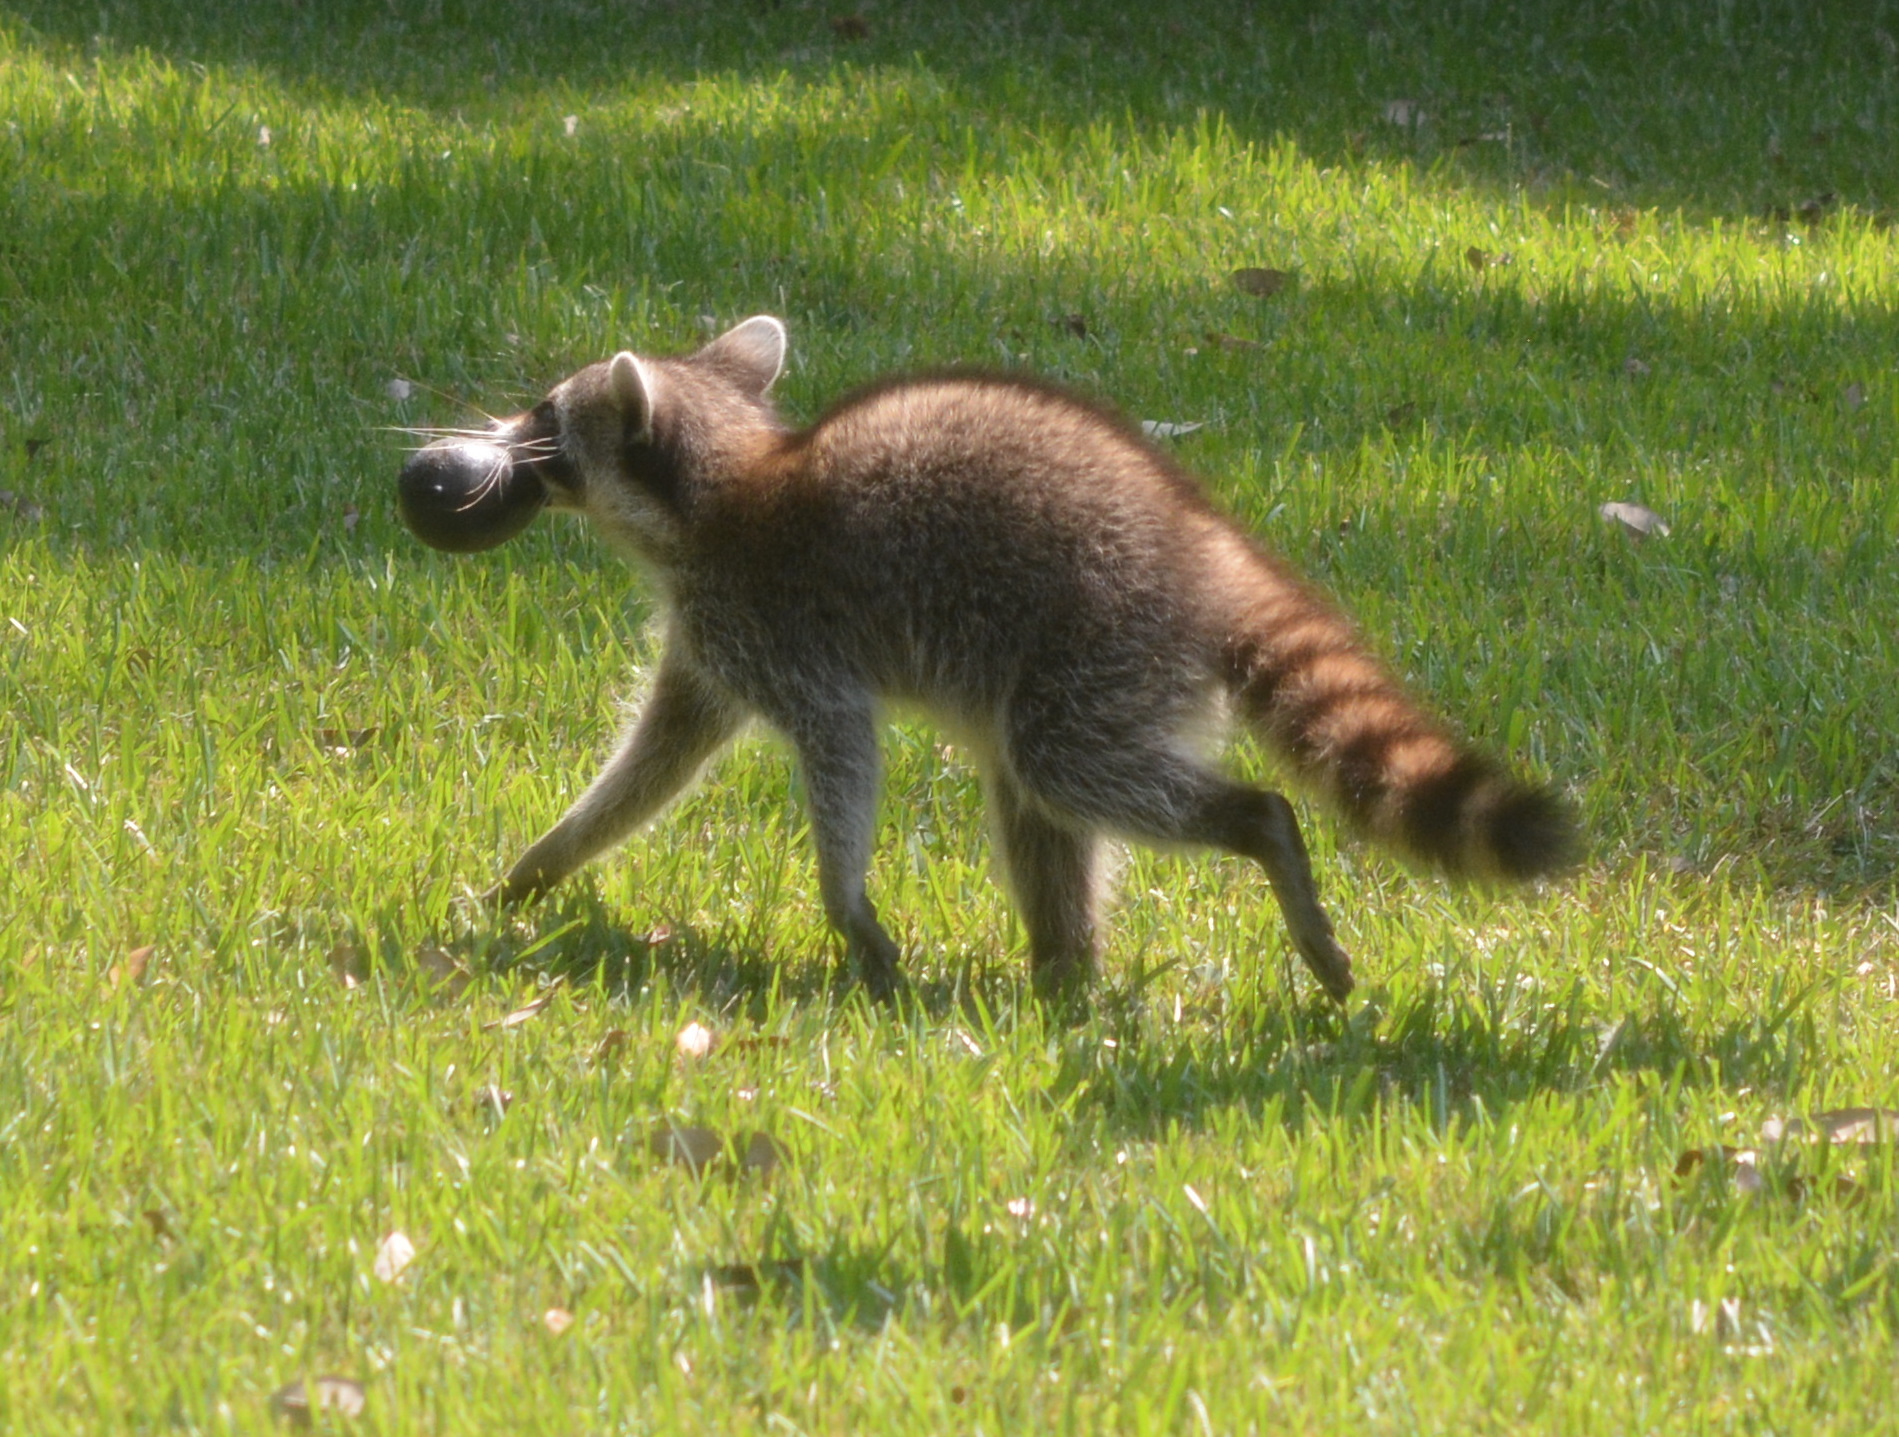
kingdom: Animalia
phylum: Chordata
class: Mammalia
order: Carnivora
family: Procyonidae
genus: Procyon
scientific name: Procyon lotor
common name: Raccoon
